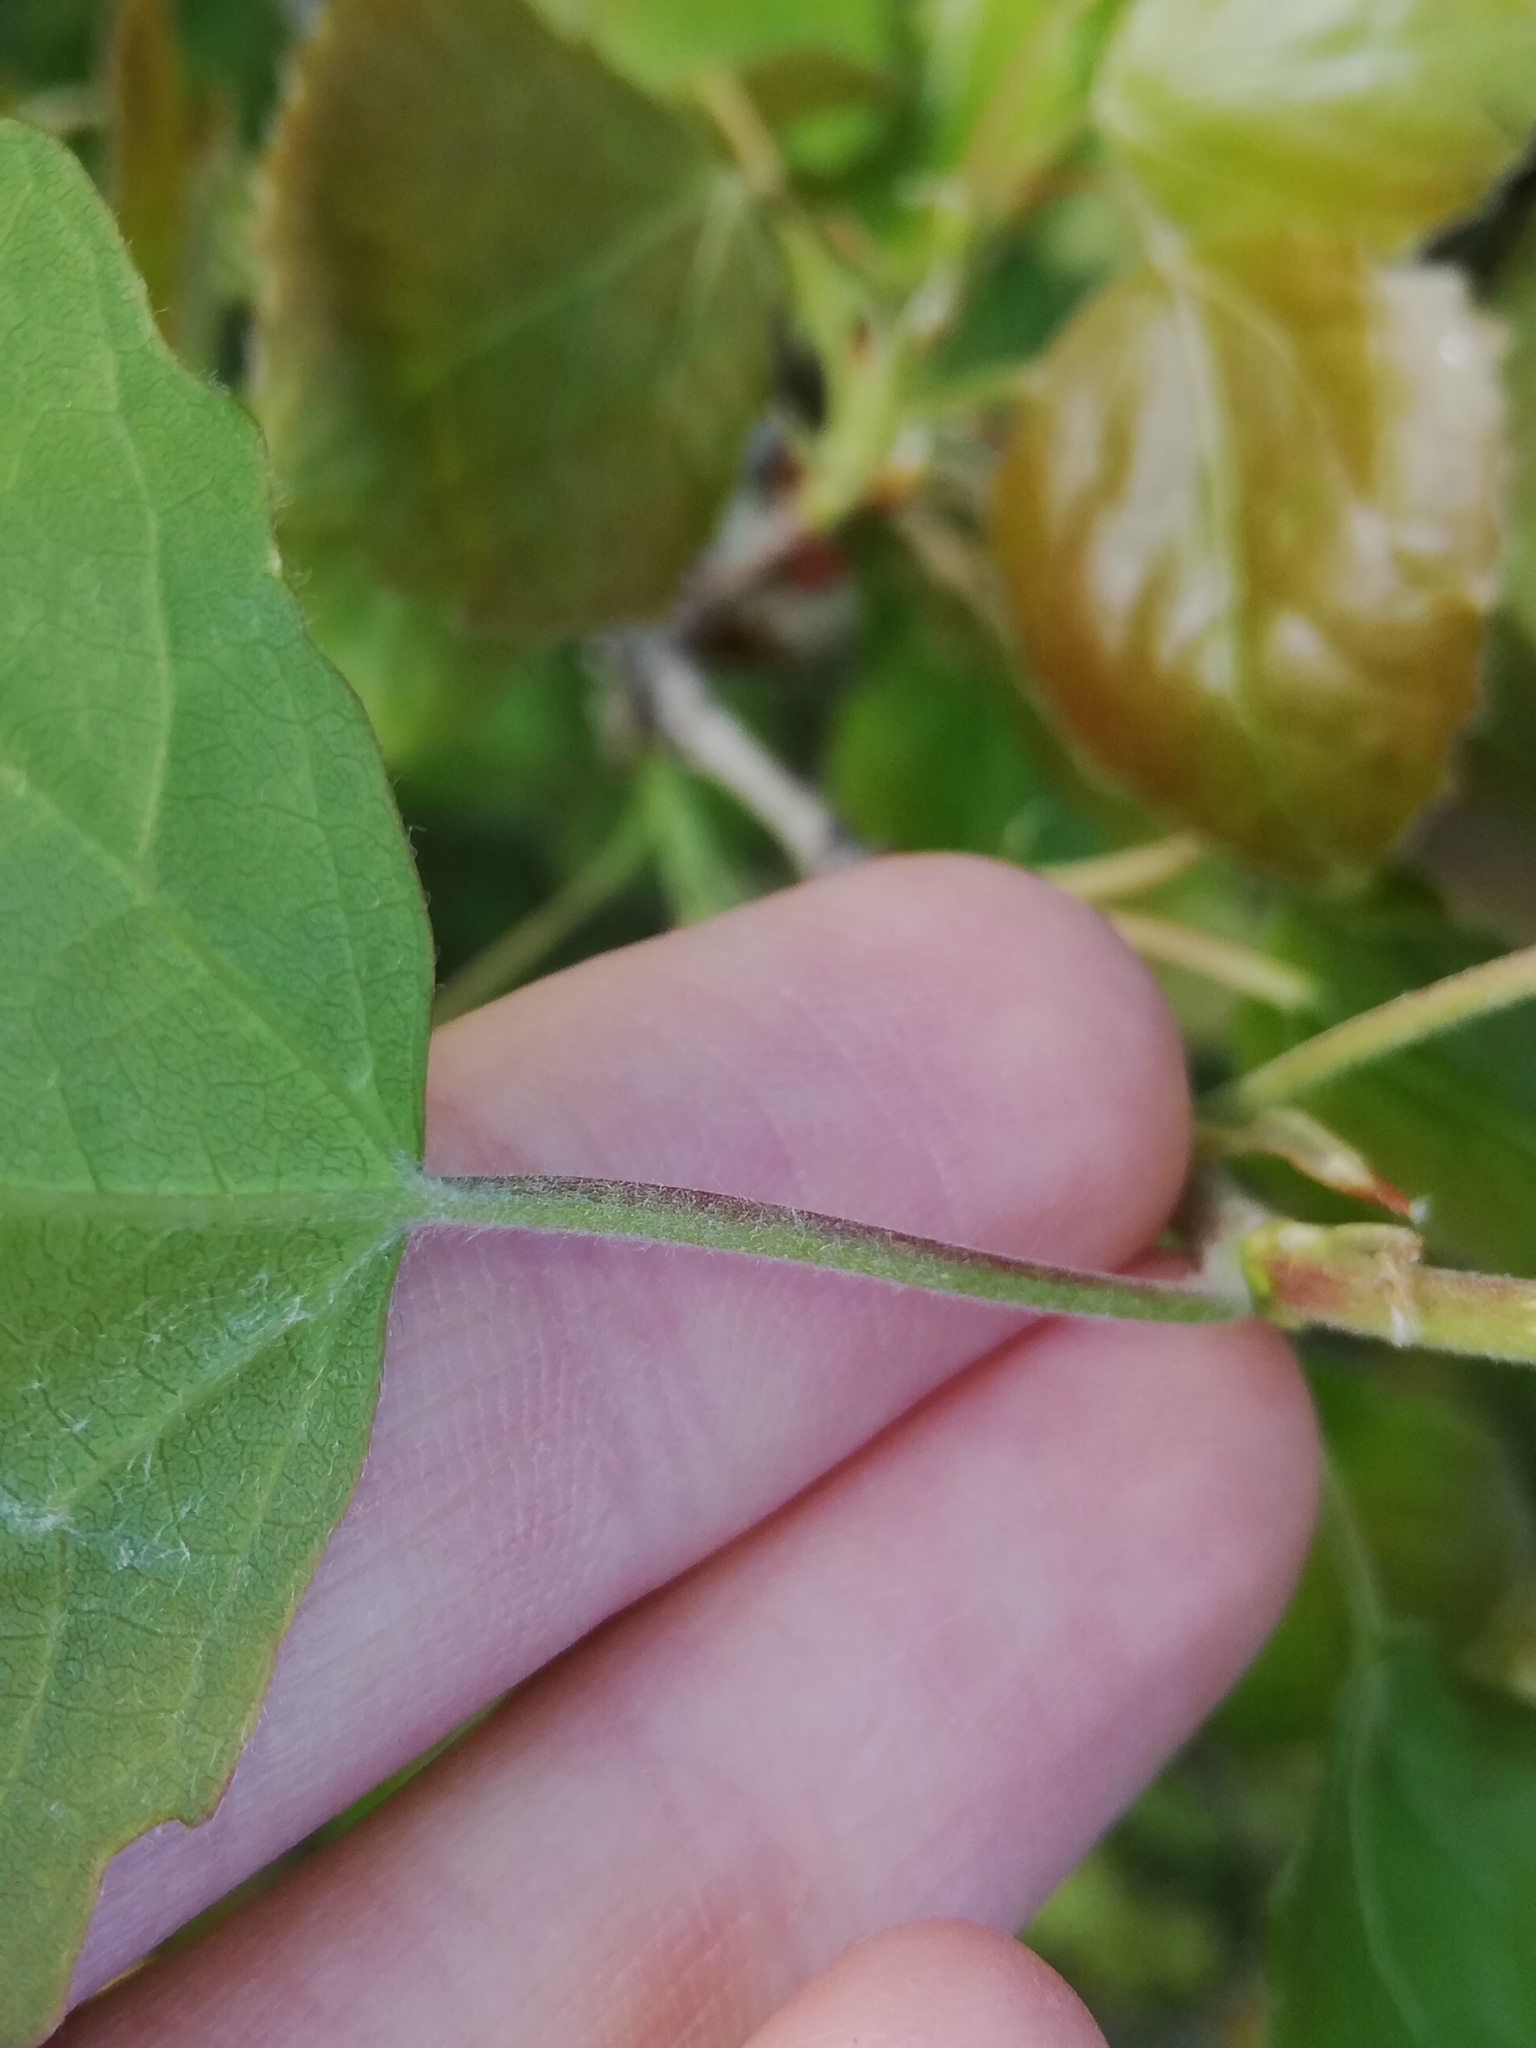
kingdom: Plantae
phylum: Tracheophyta
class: Magnoliopsida
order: Malpighiales
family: Salicaceae
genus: Populus
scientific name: Populus tremula
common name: European aspen
